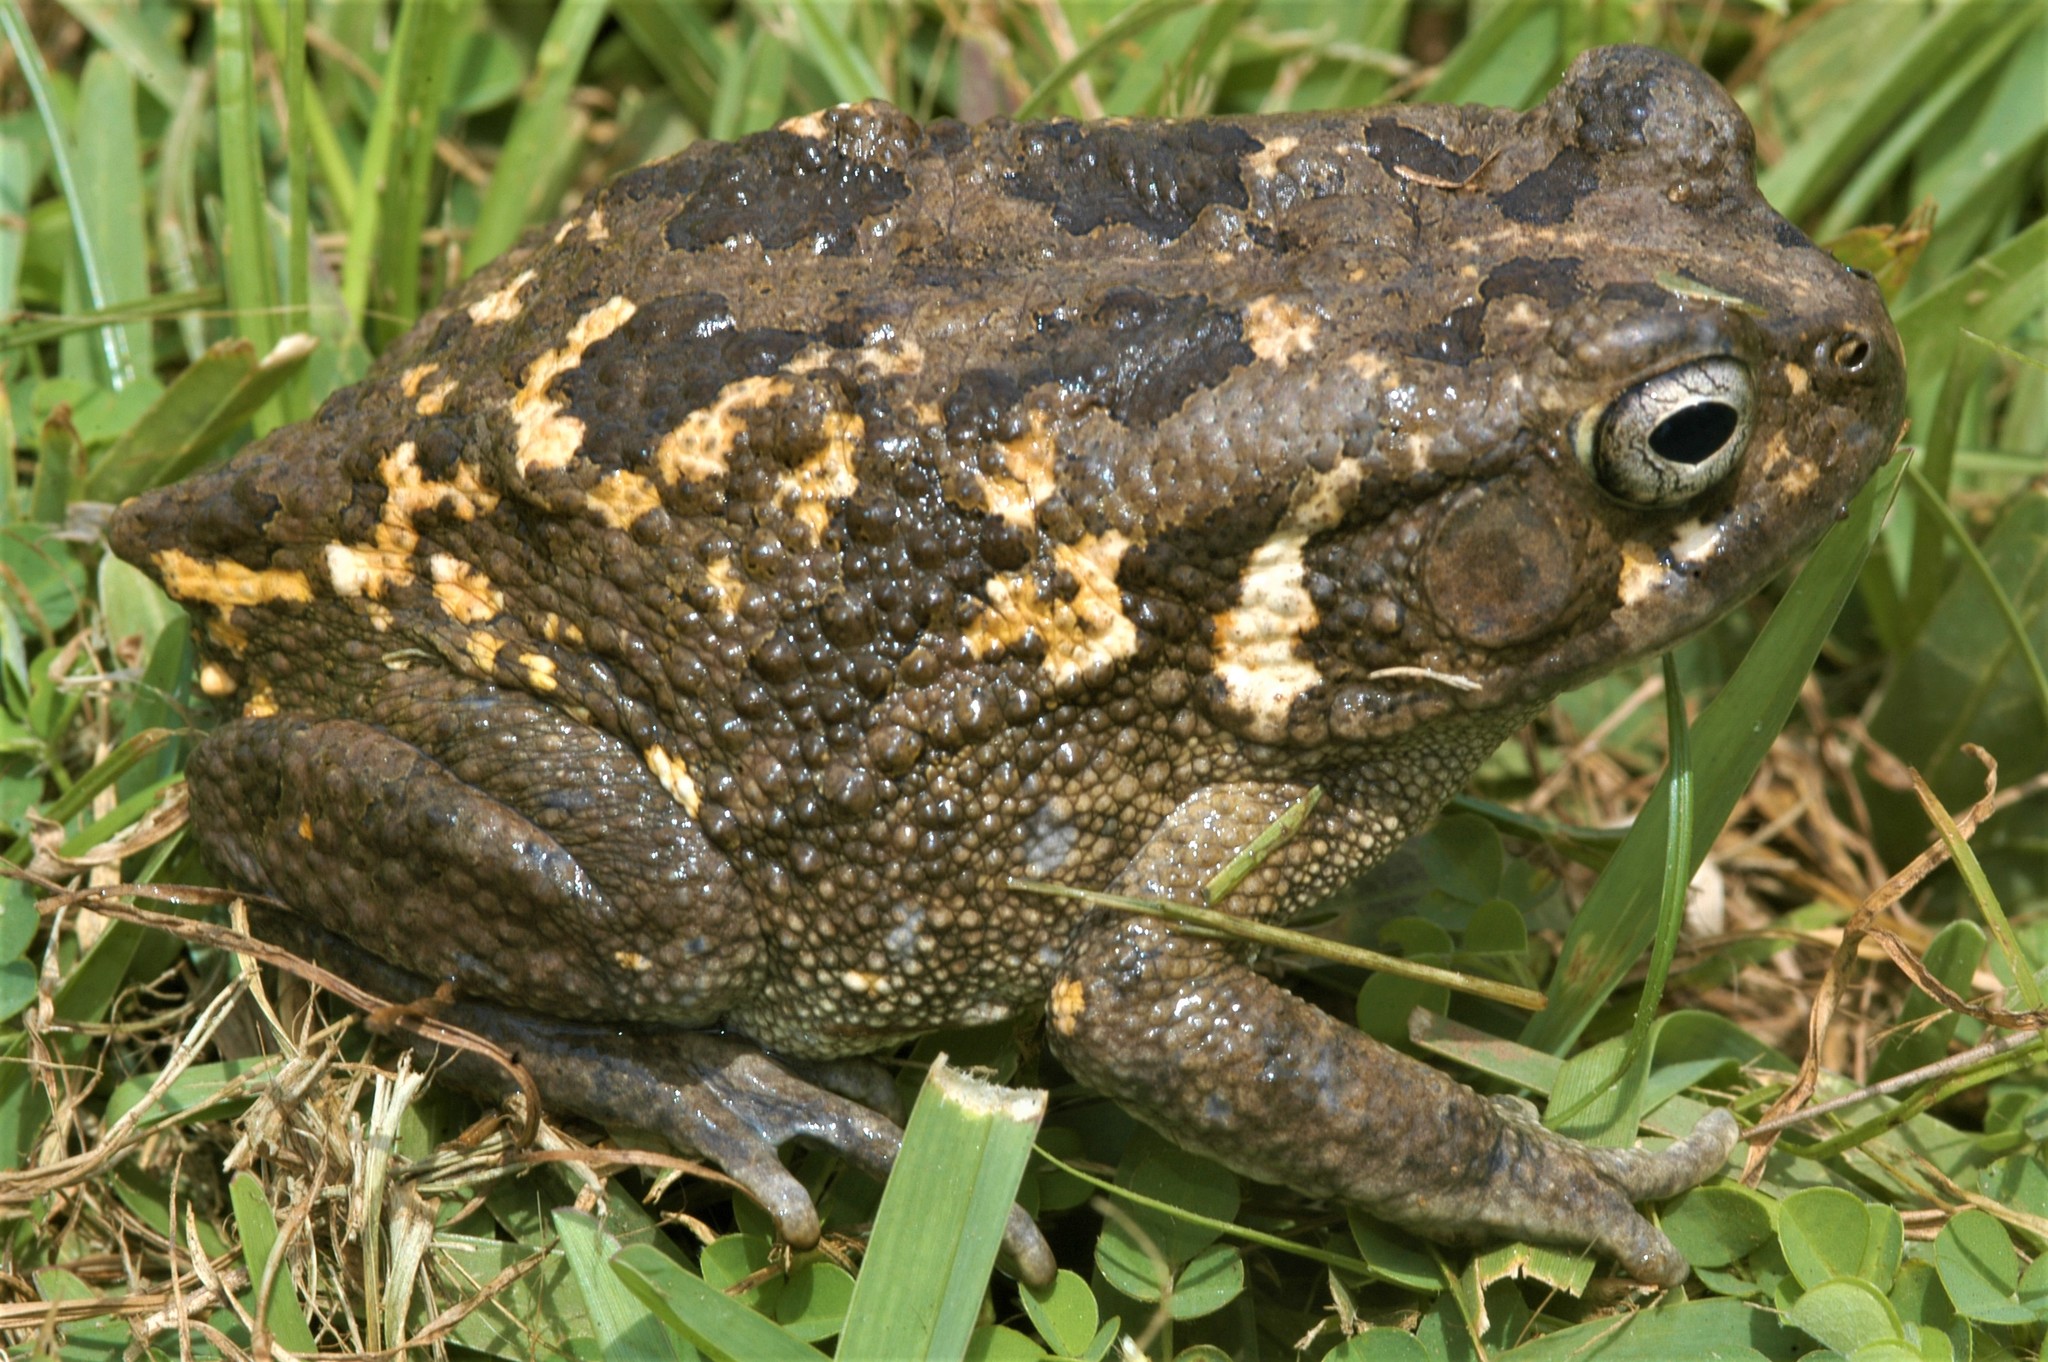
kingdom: Animalia
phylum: Chordata
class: Amphibia
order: Anura
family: Bufonidae
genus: Sclerophrys
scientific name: Sclerophrys regularis
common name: African common toad
